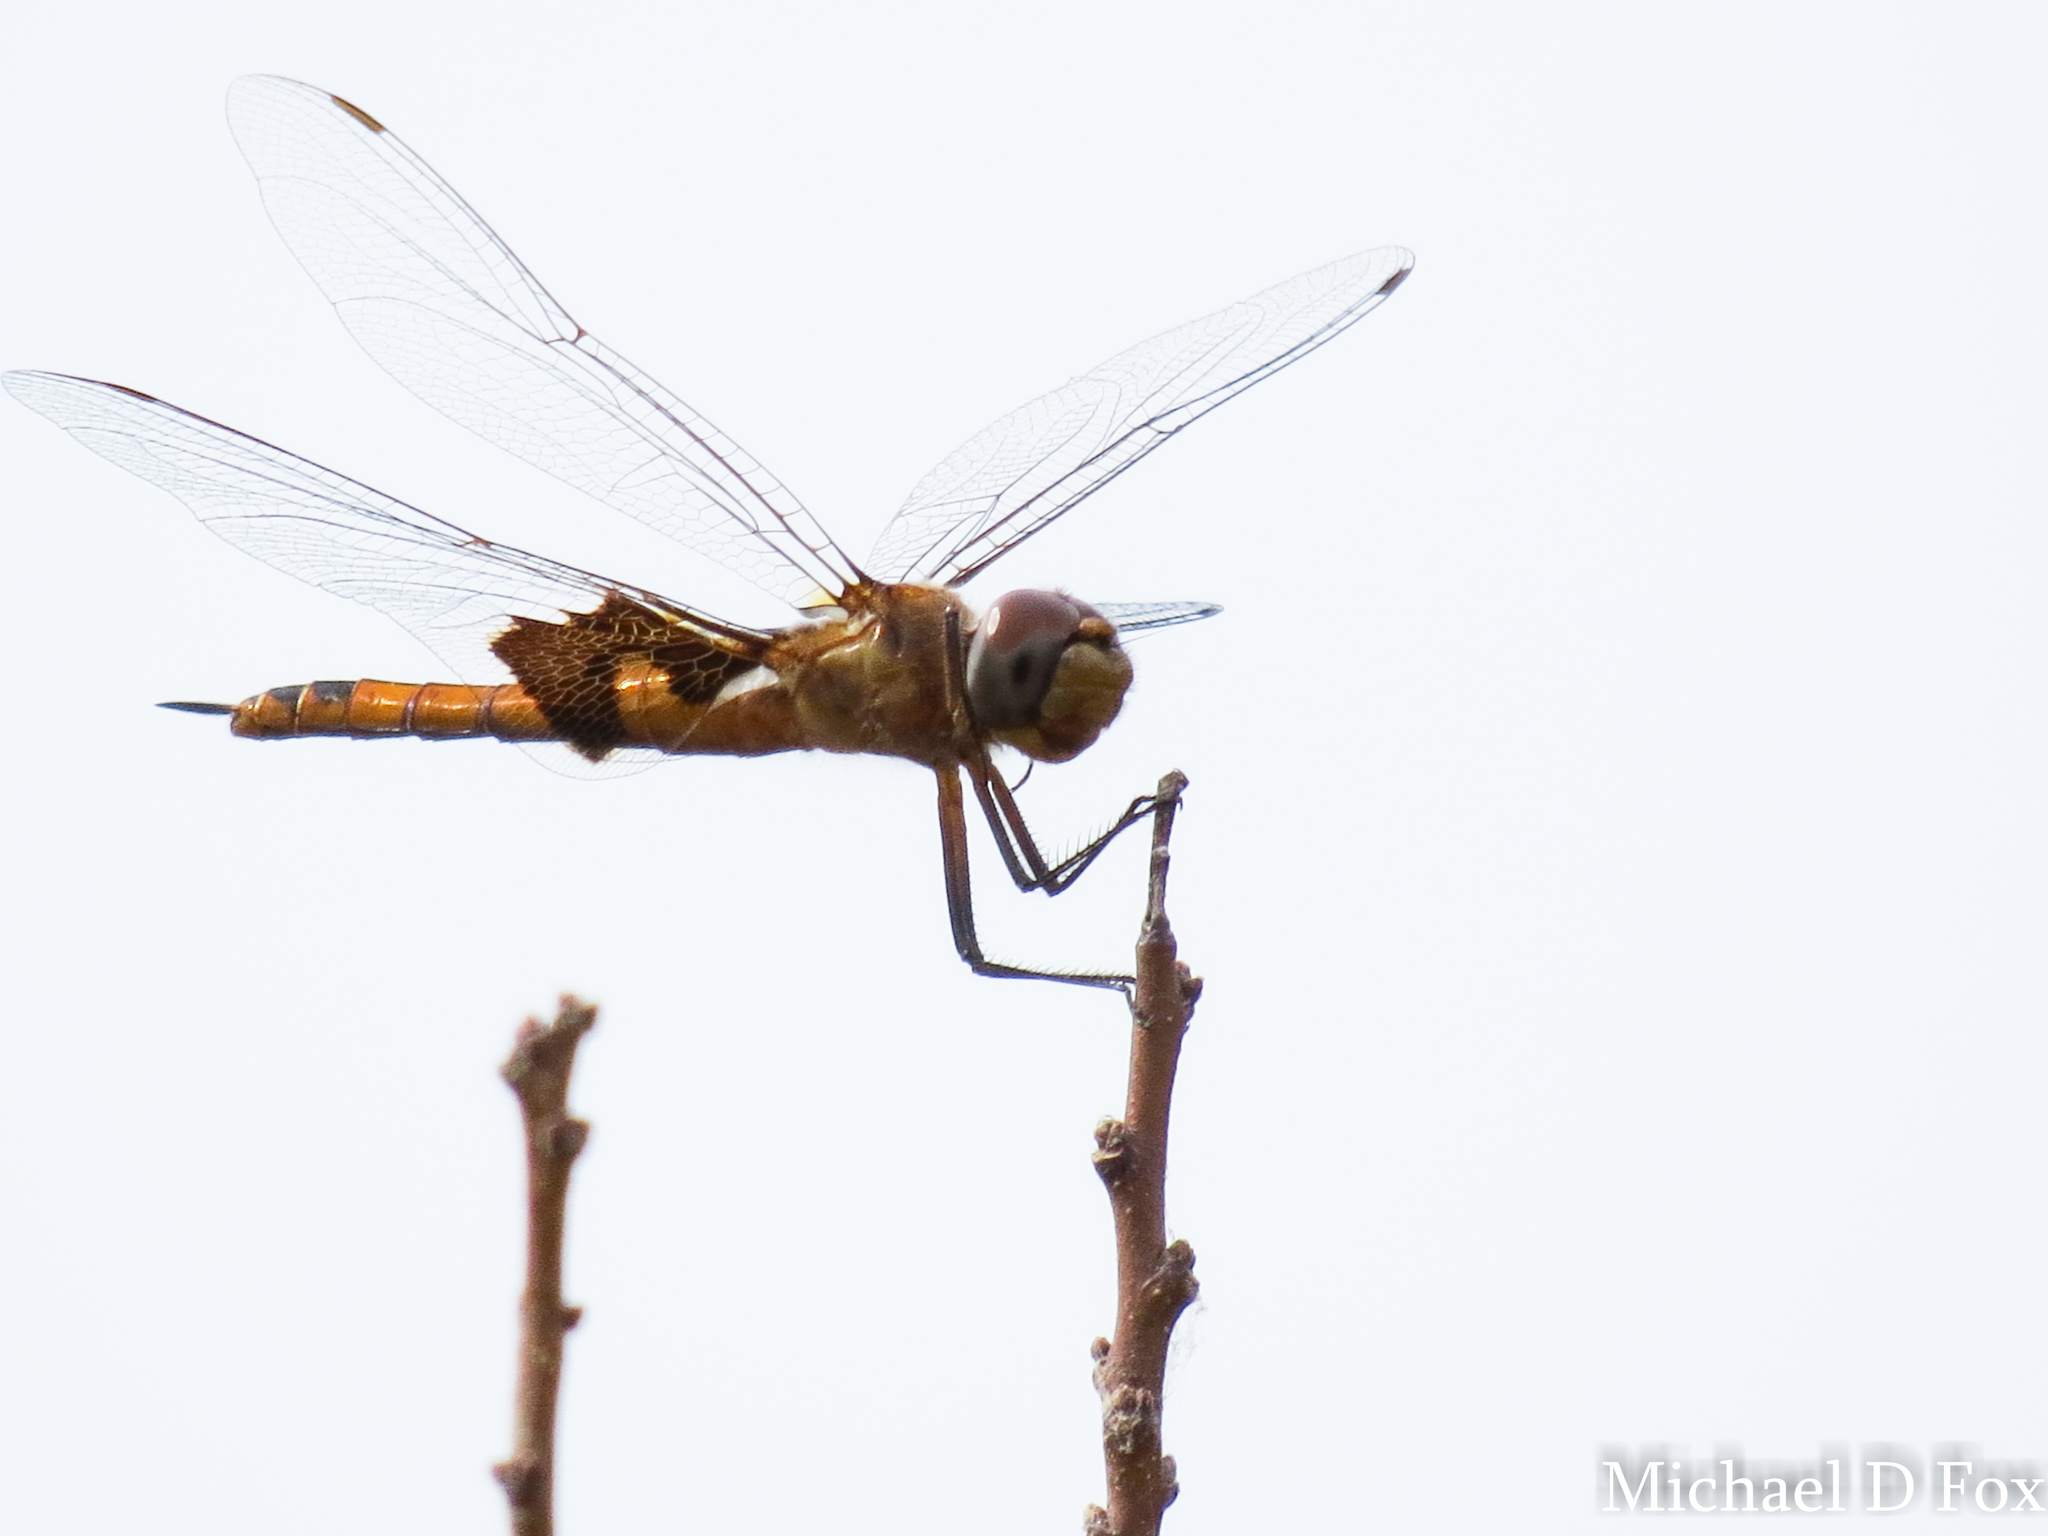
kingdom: Animalia
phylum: Arthropoda
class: Insecta
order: Odonata
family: Libellulidae
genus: Tramea
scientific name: Tramea onusta
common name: Red saddlebags
